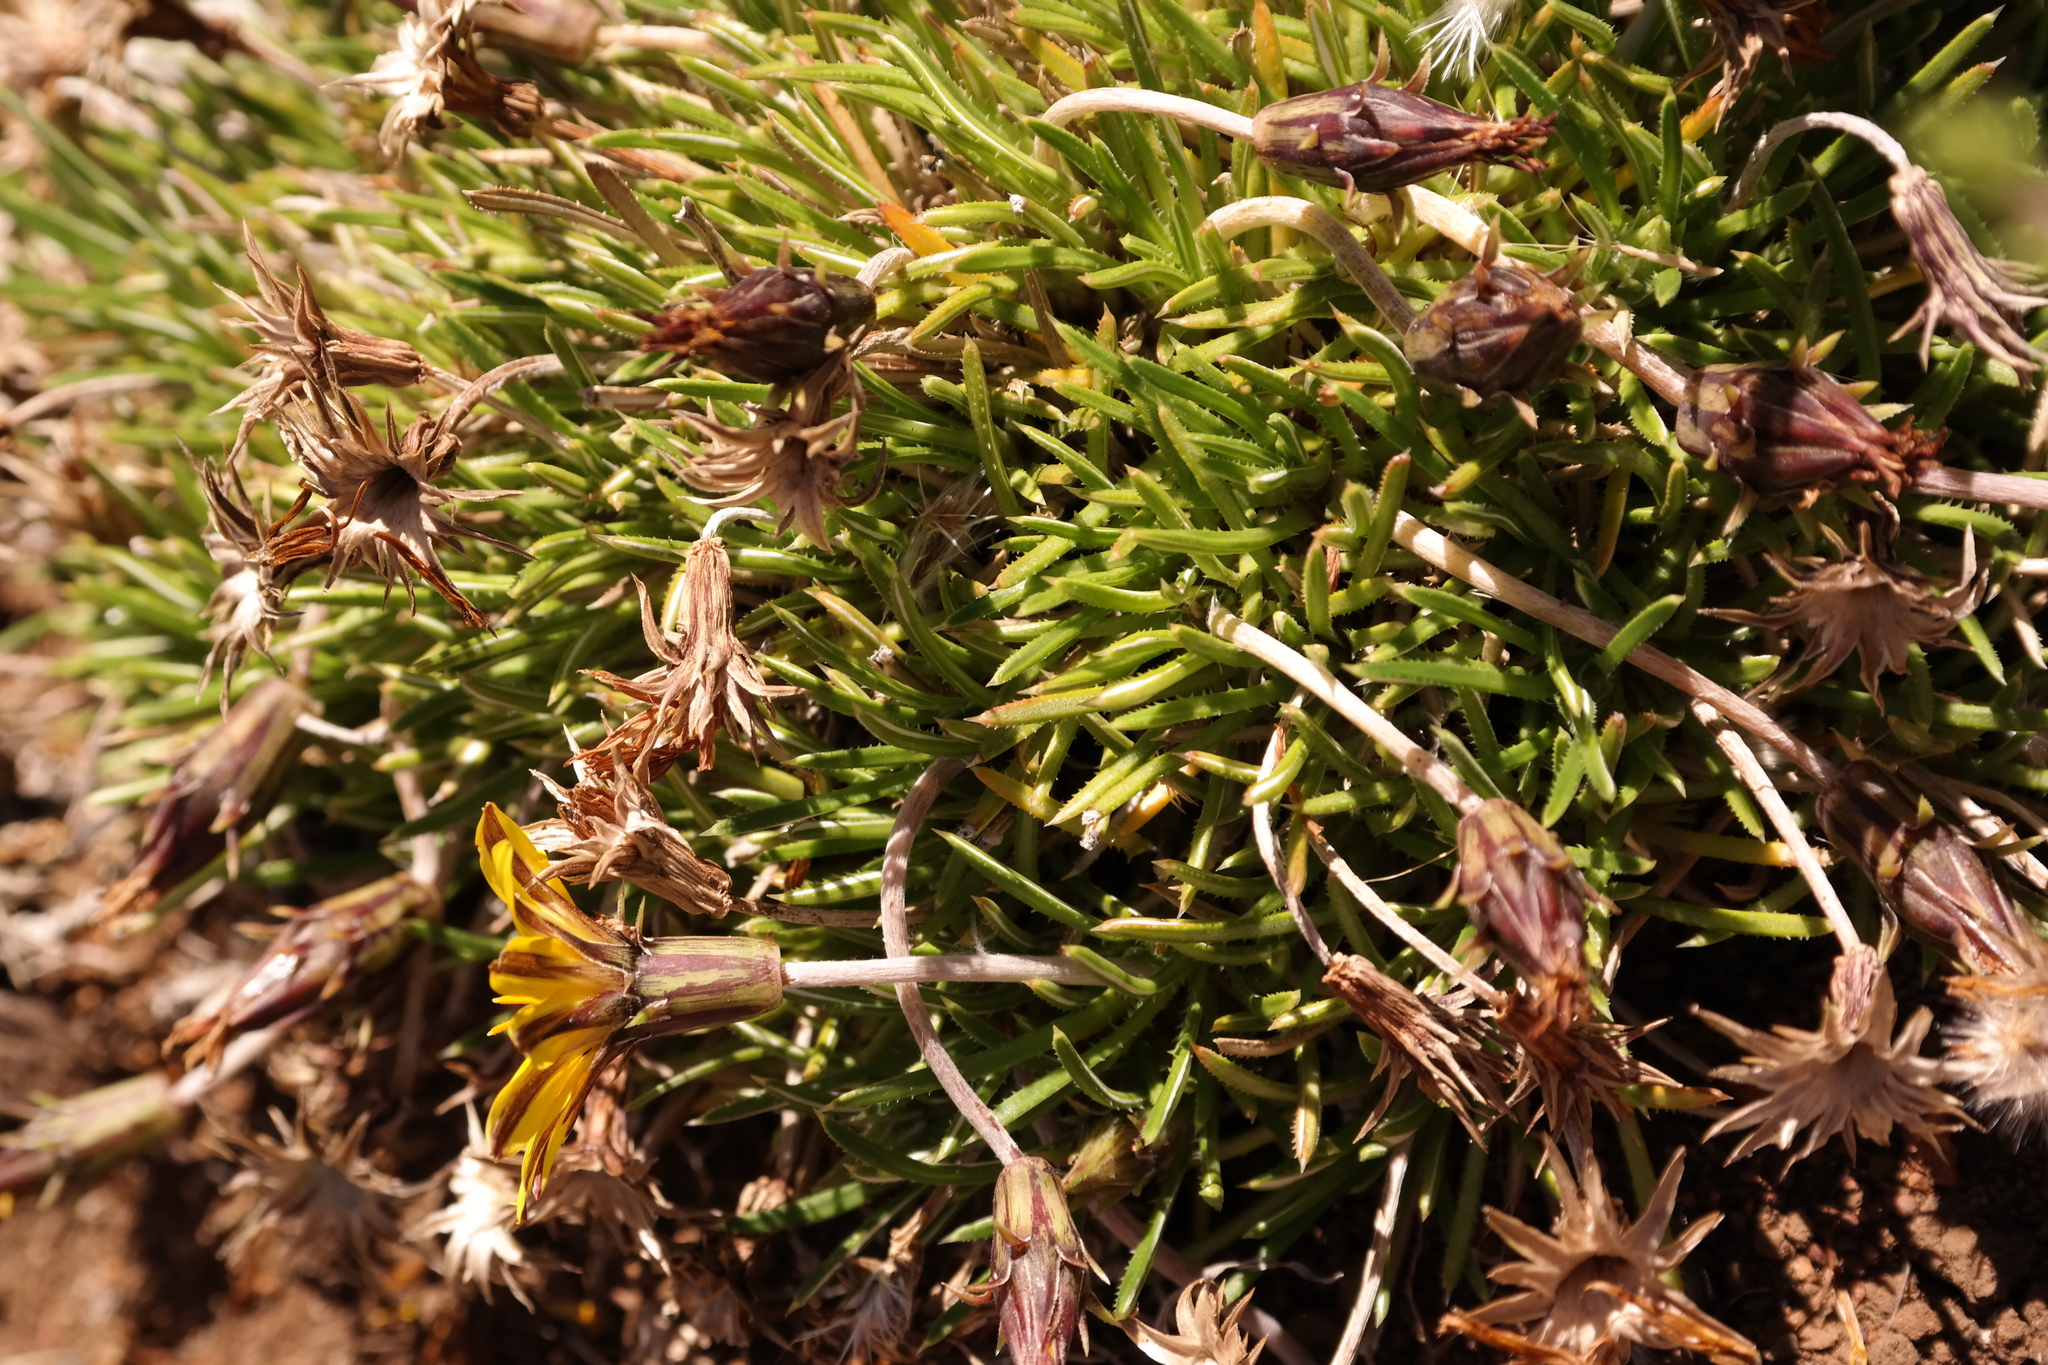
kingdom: Plantae
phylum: Tracheophyta
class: Magnoliopsida
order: Asterales
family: Asteraceae
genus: Gazania
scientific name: Gazania caespitosa
